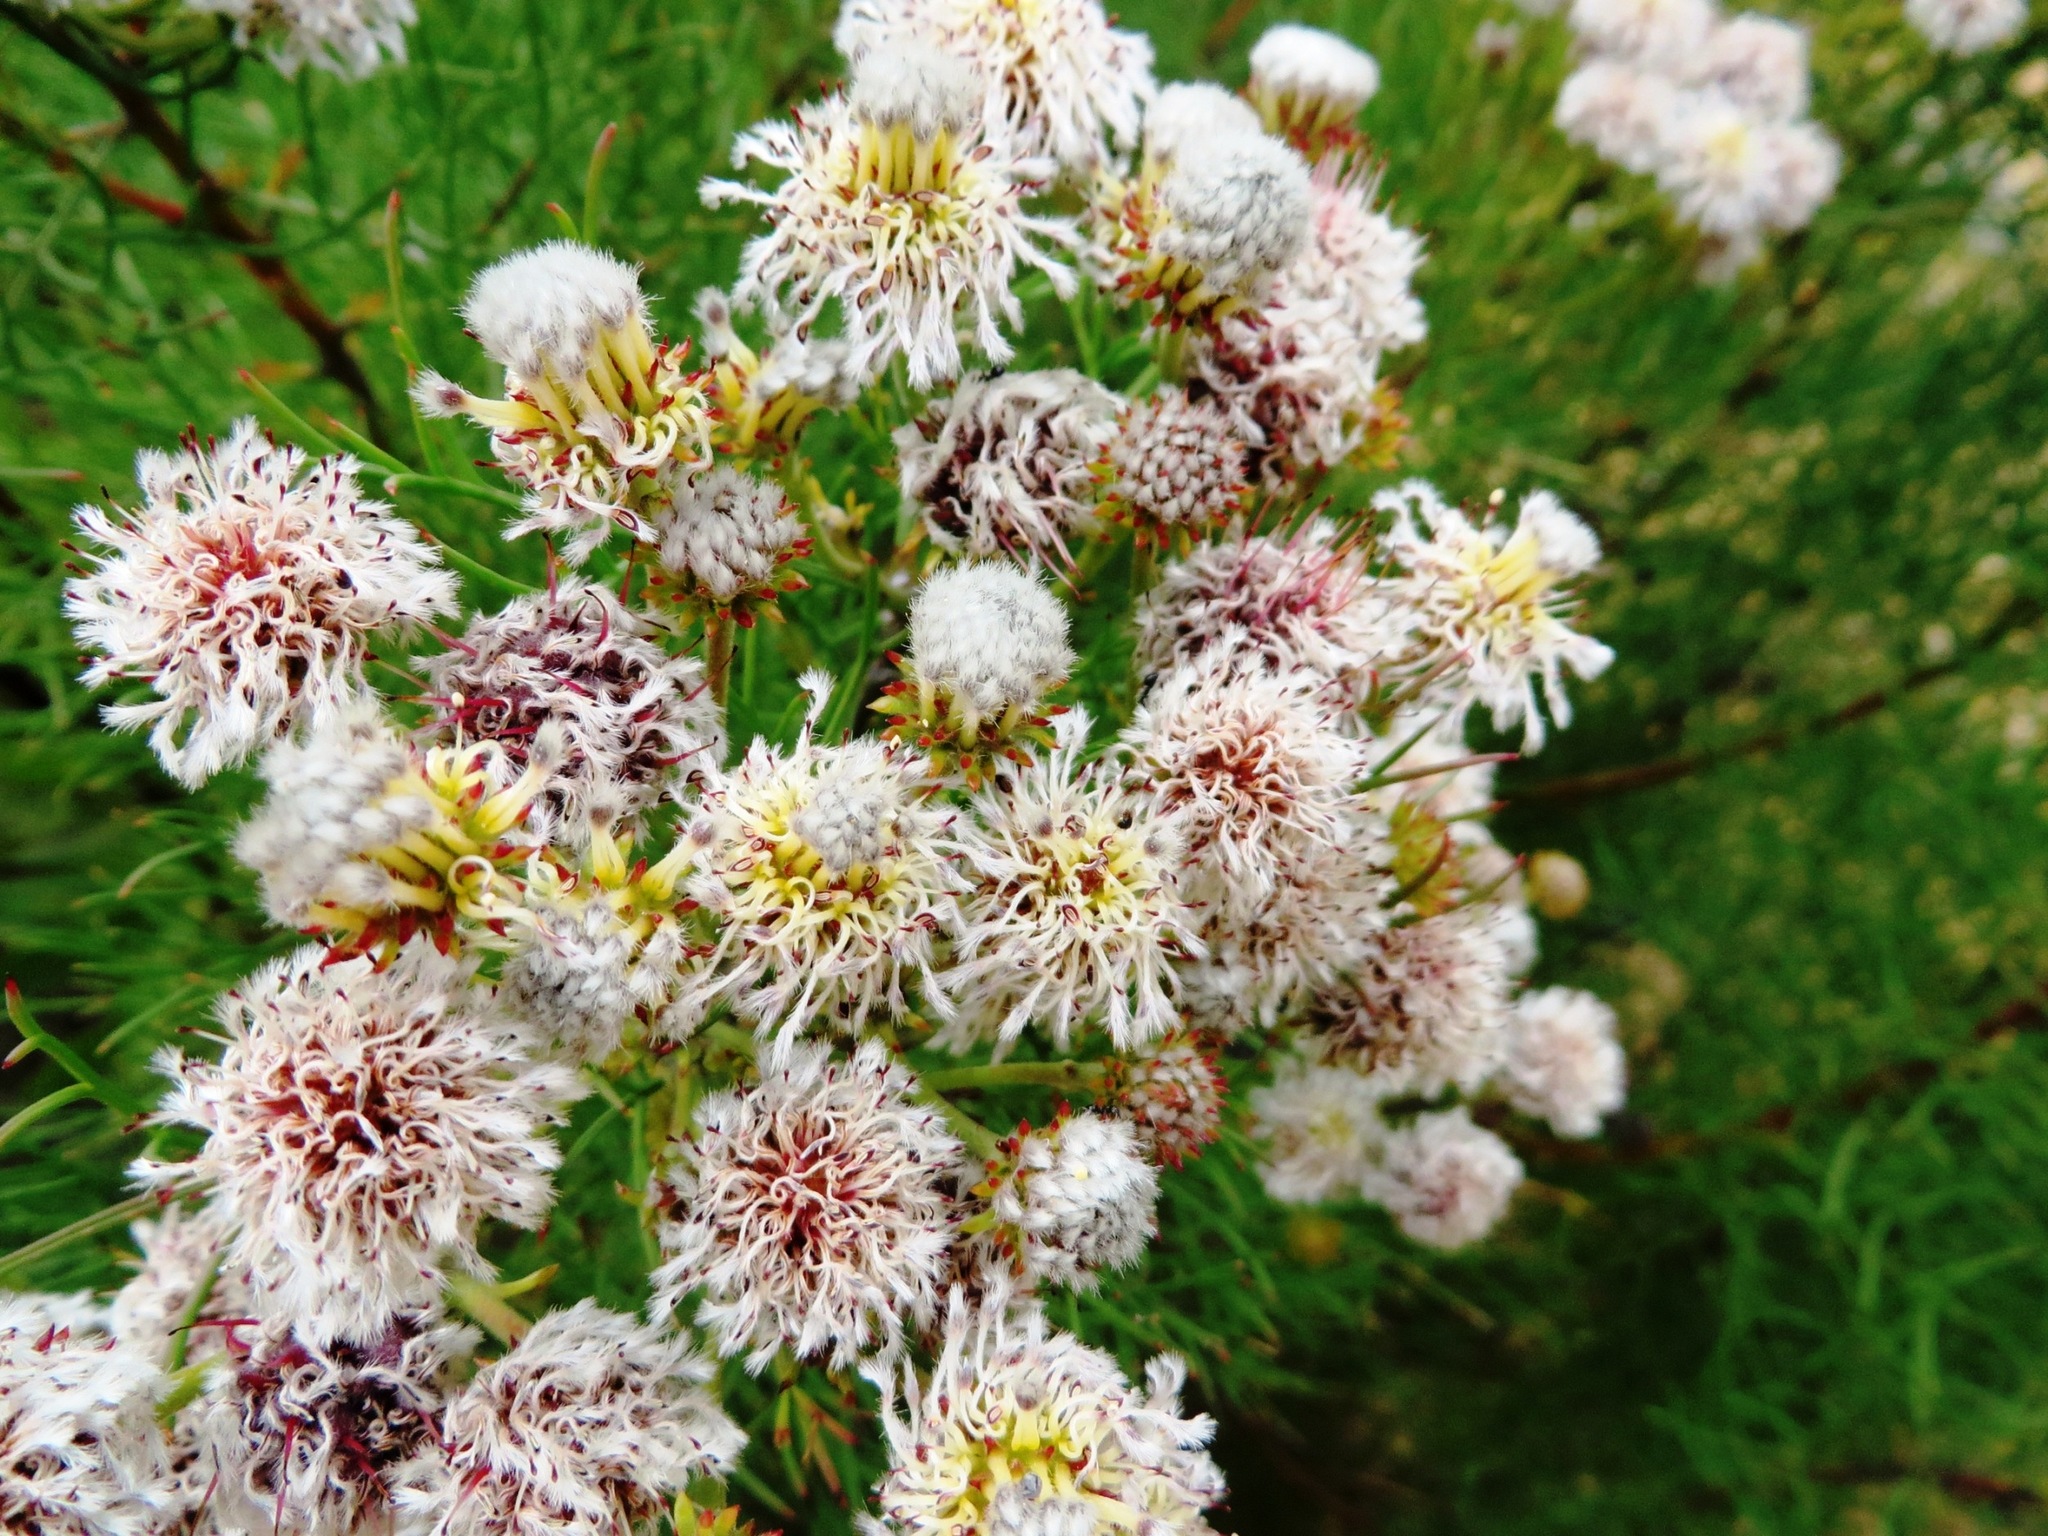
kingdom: Plantae
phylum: Tracheophyta
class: Magnoliopsida
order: Proteales
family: Proteaceae
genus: Serruria
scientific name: Serruria kraussii
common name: Snowball spiderhead
